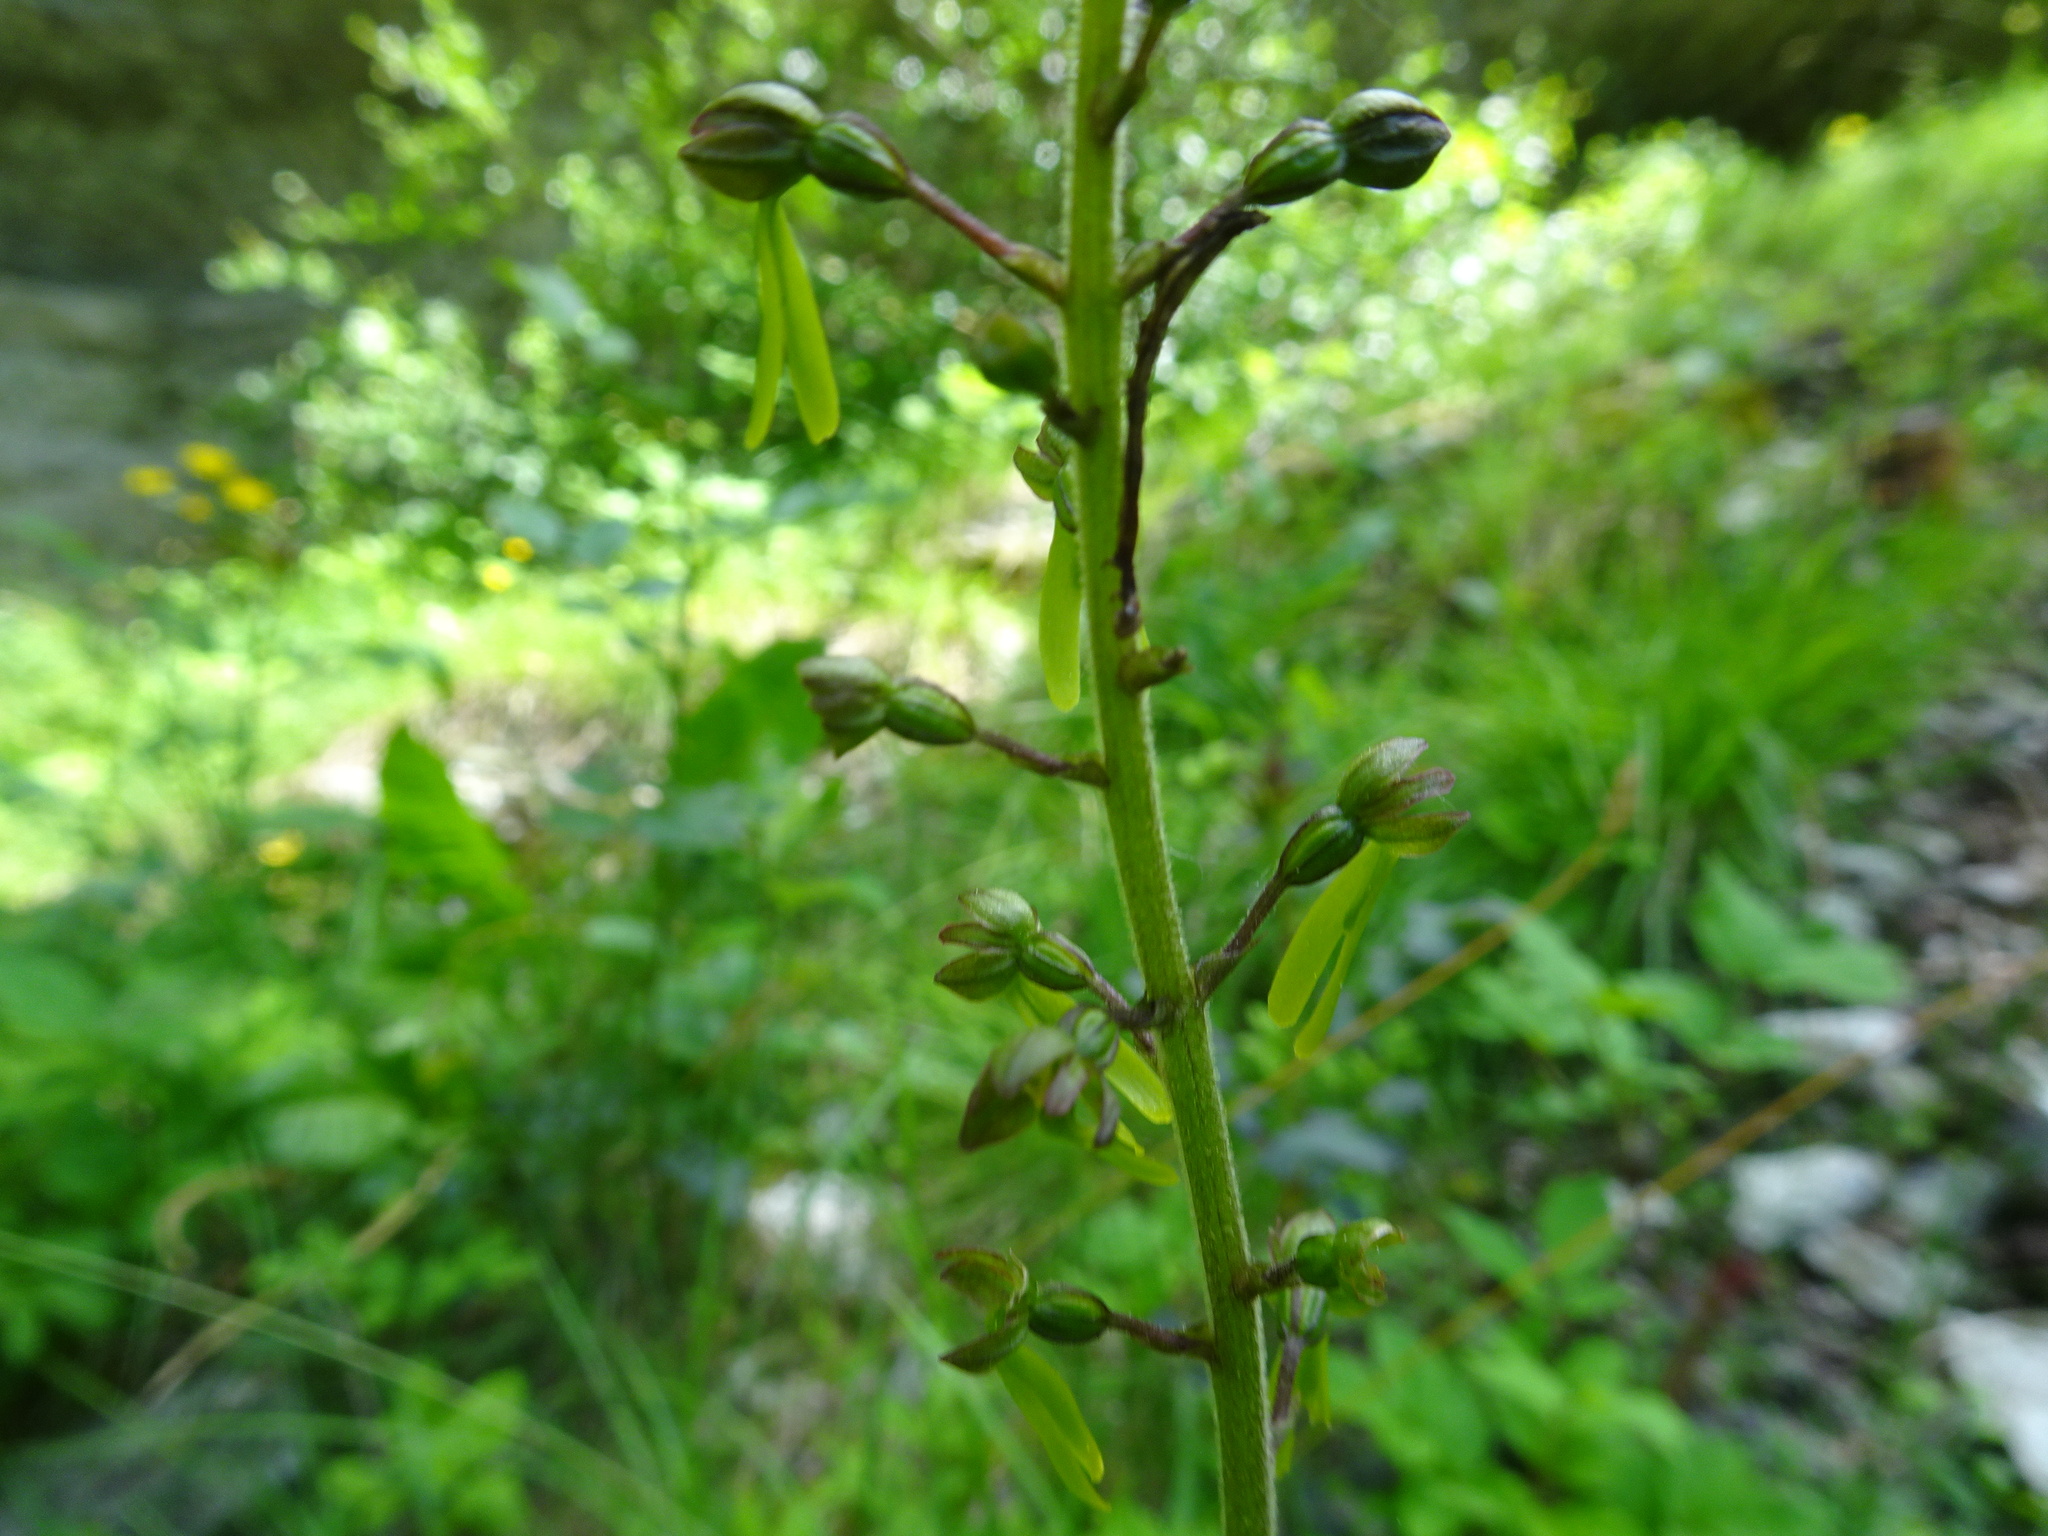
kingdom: Plantae
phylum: Tracheophyta
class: Liliopsida
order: Asparagales
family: Orchidaceae
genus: Neottia
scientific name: Neottia ovata
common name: Common twayblade
